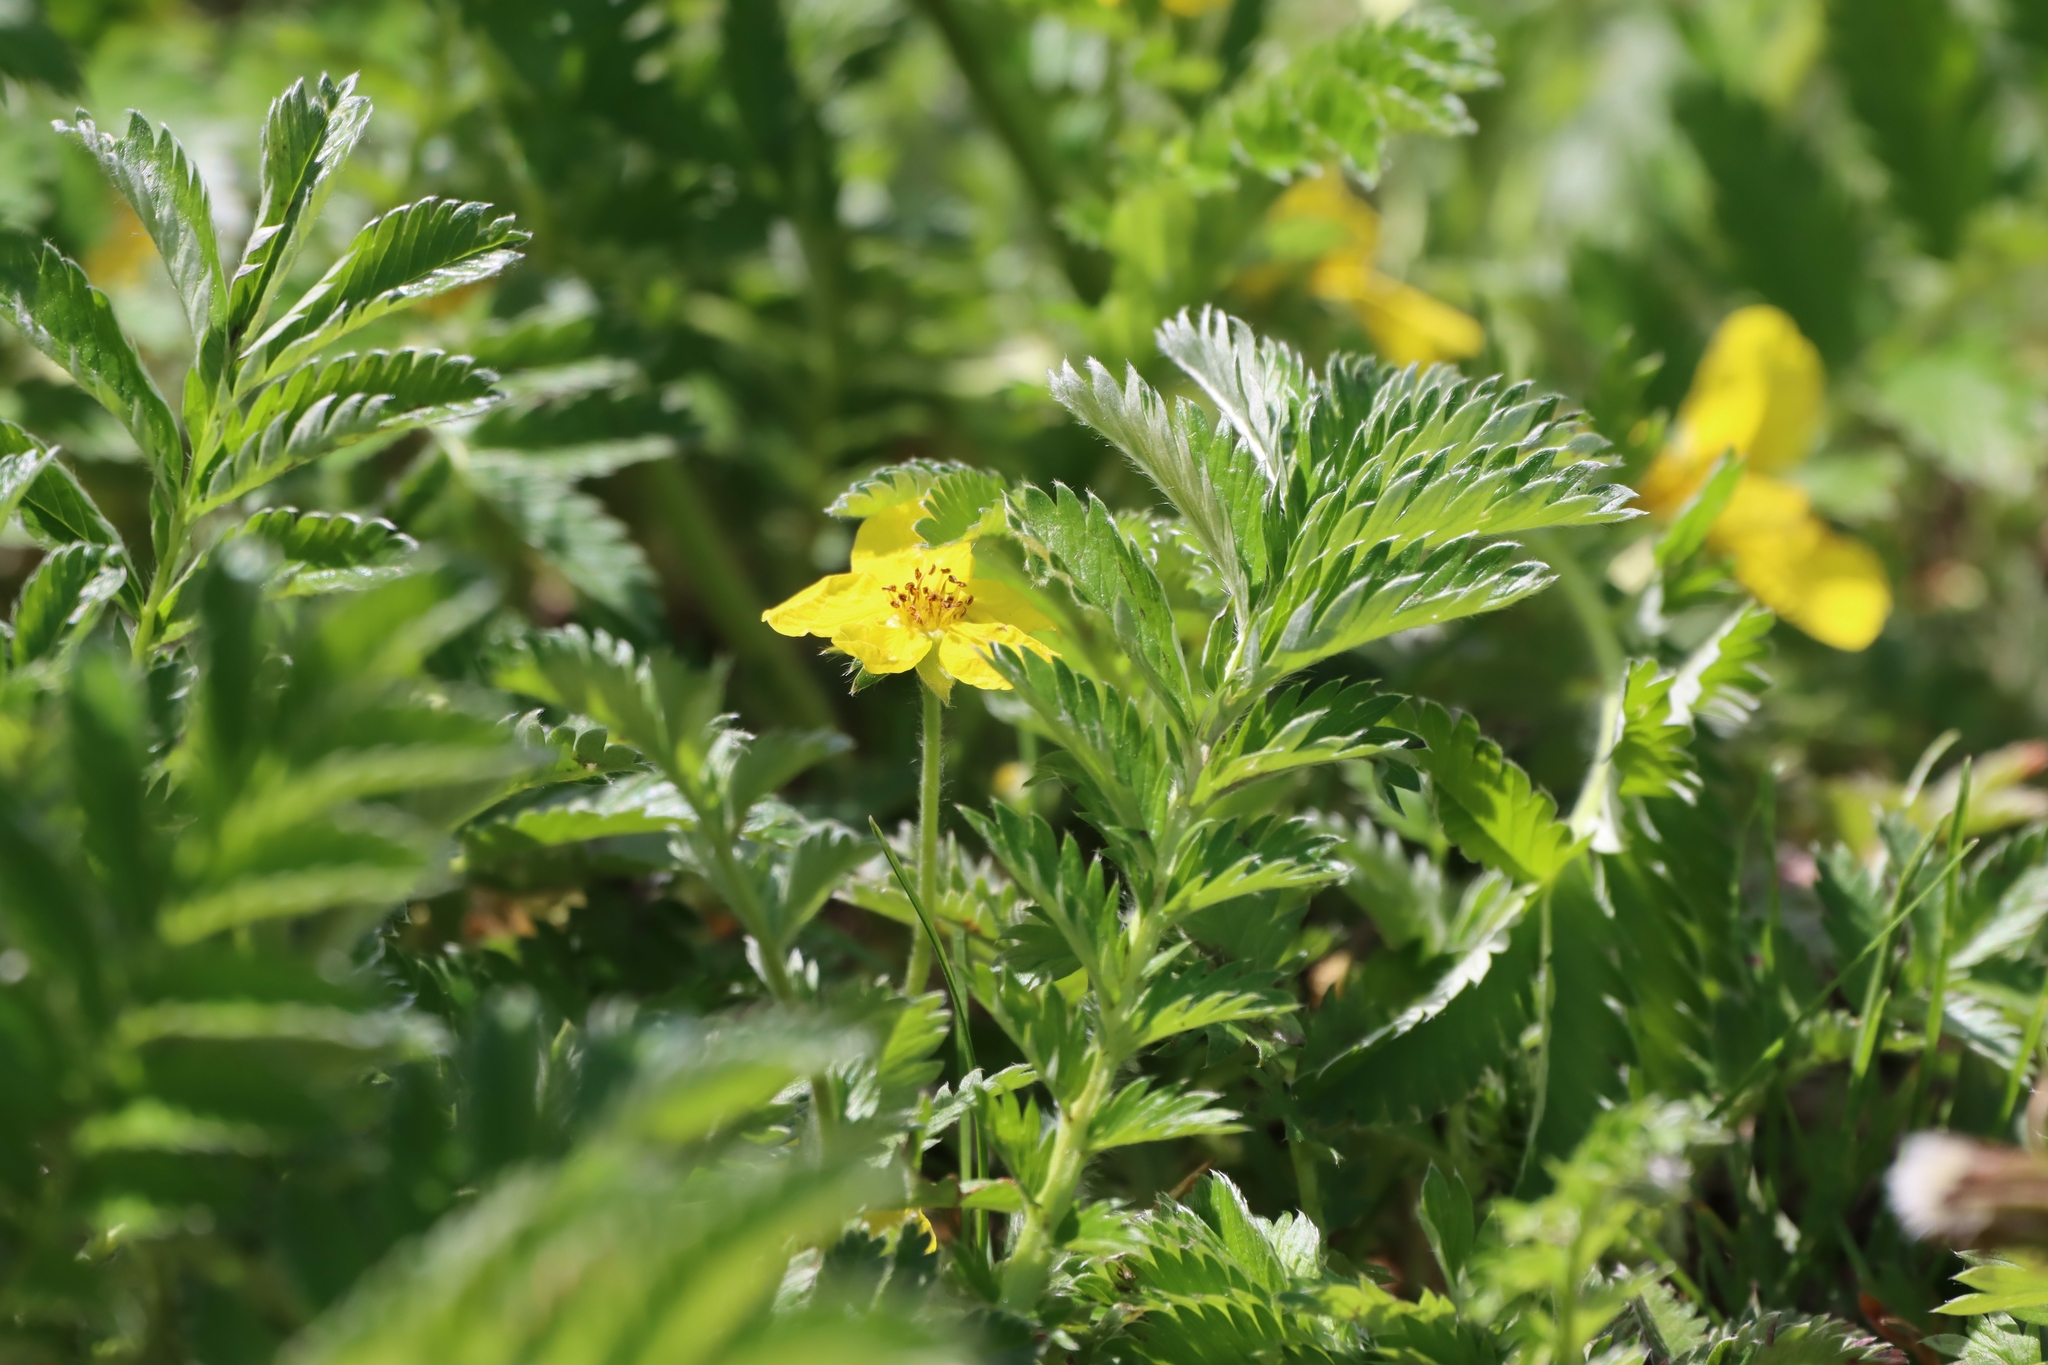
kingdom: Plantae
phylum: Tracheophyta
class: Magnoliopsida
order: Rosales
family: Rosaceae
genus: Argentina
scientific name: Argentina anserina
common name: Common silverweed
